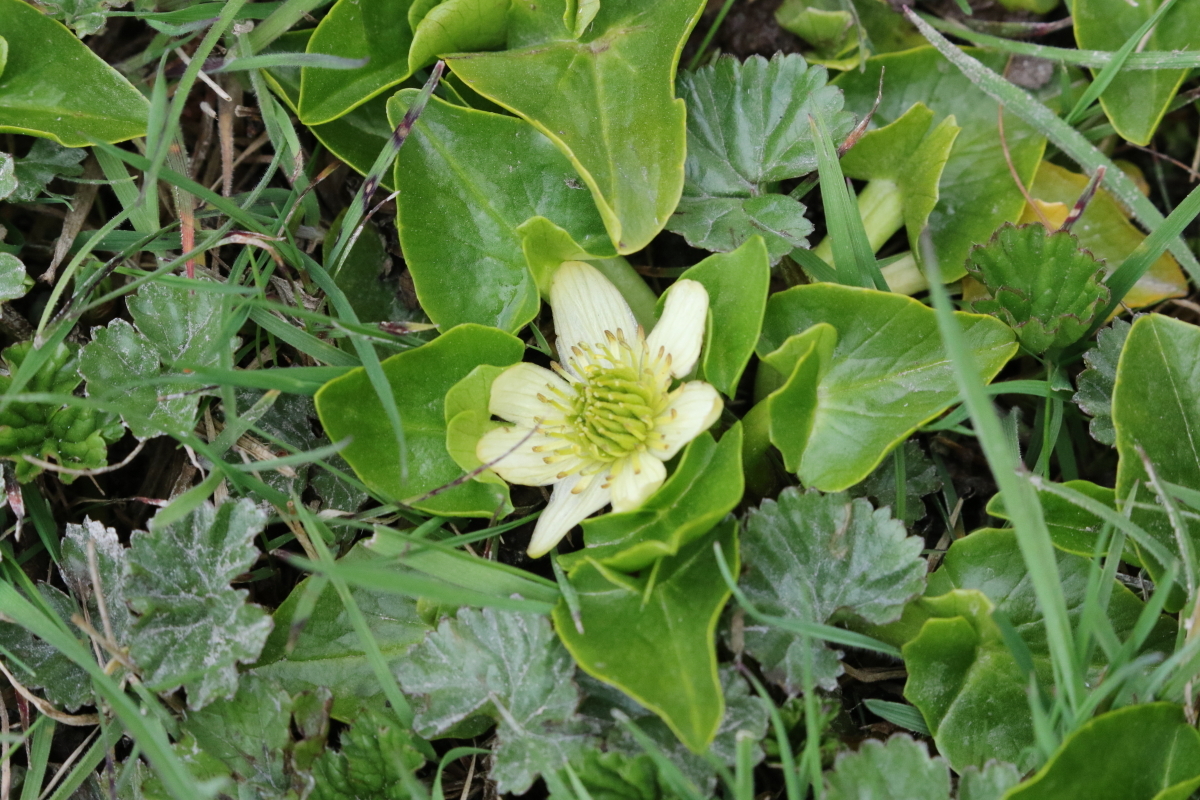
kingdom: Plantae
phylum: Tracheophyta
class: Magnoliopsida
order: Ranunculales
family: Ranunculaceae
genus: Caltha
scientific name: Caltha sagittata
